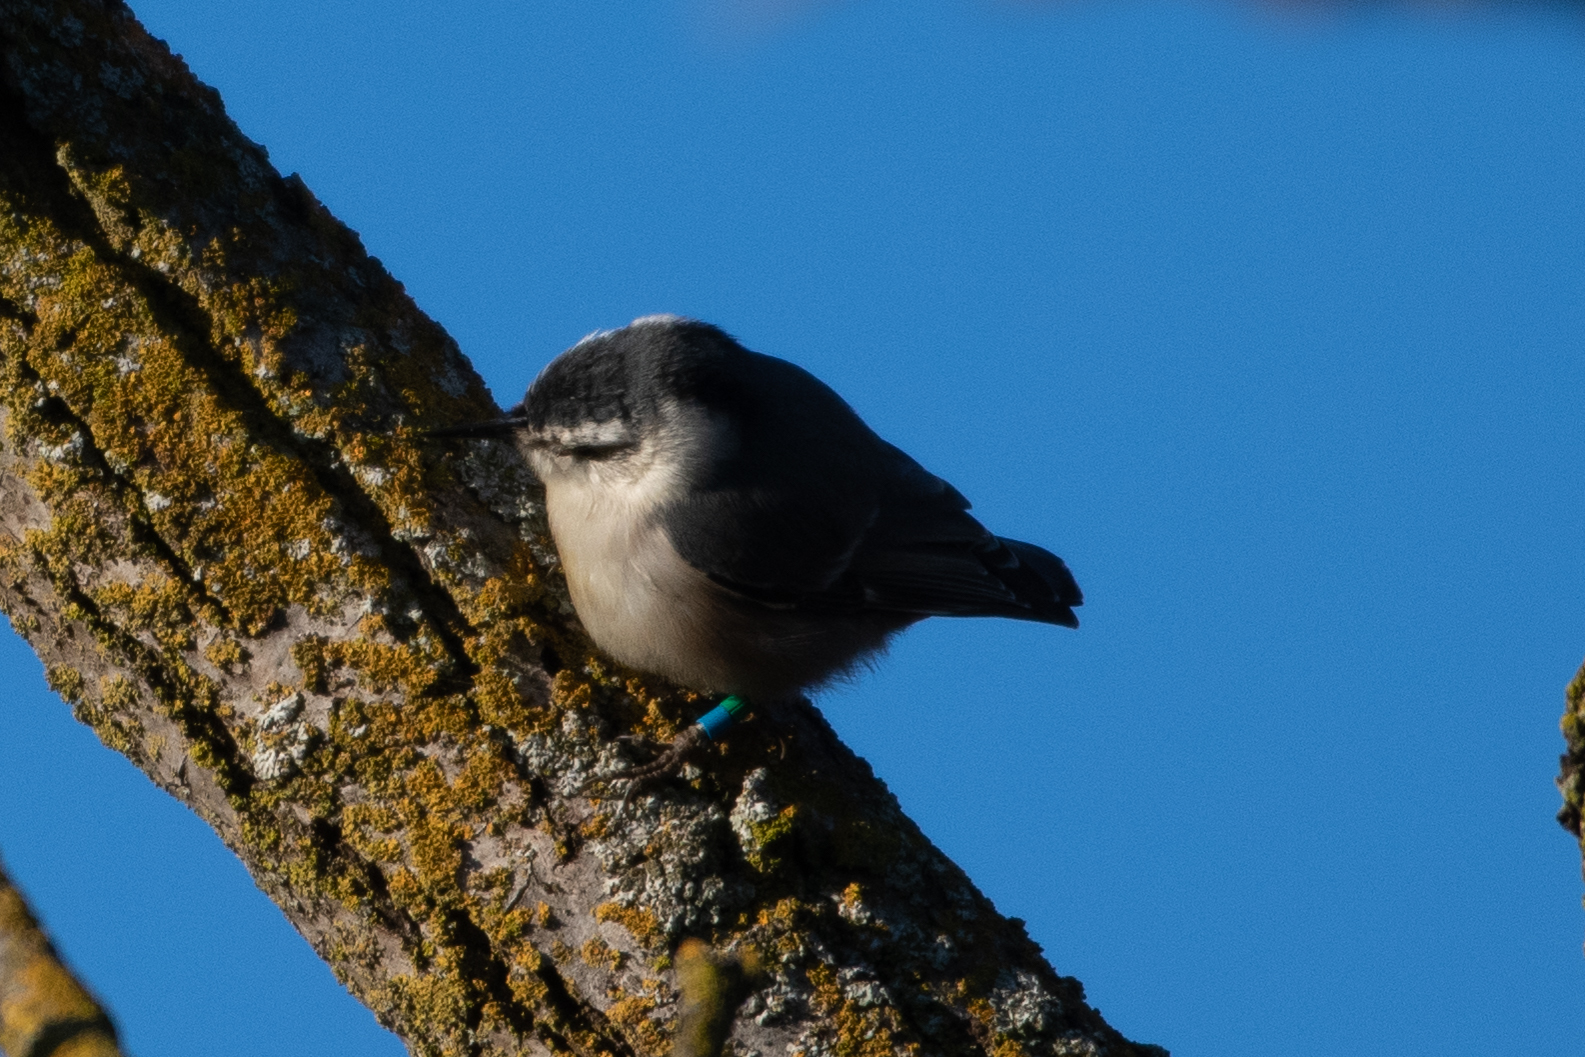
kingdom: Animalia
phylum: Chordata
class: Aves
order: Passeriformes
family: Sittidae
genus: Sitta
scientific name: Sitta carolinensis
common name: White-breasted nuthatch
